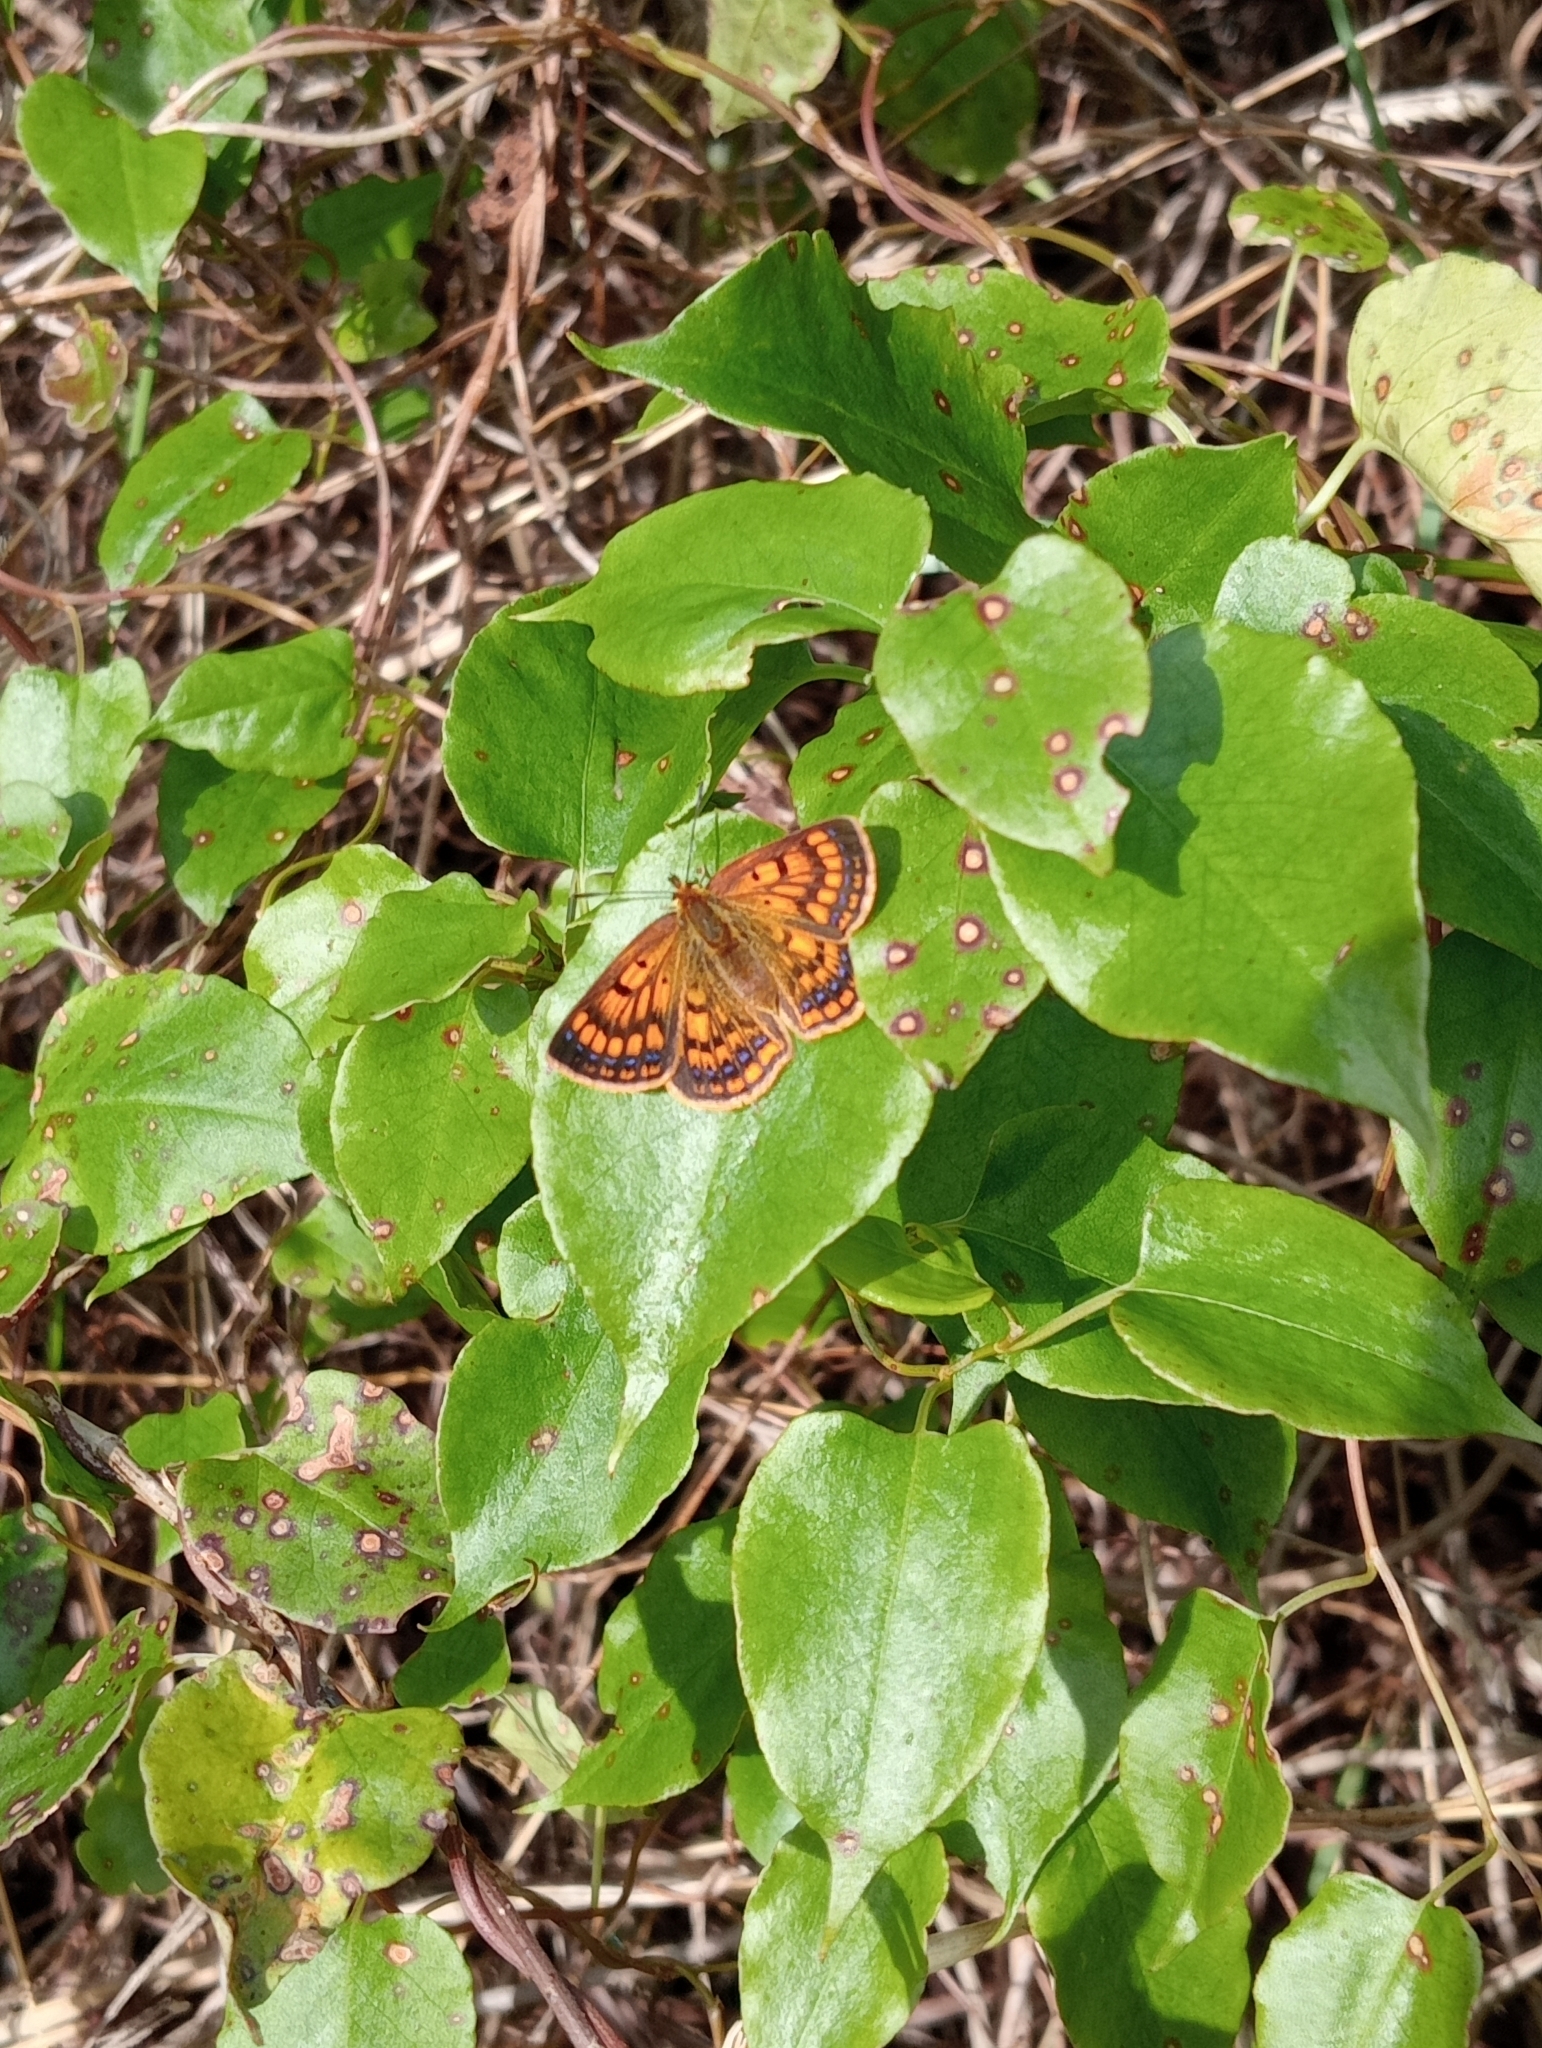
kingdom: Animalia
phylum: Arthropoda
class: Insecta
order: Lepidoptera
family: Lycaenidae
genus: Lycaena
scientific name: Lycaena
